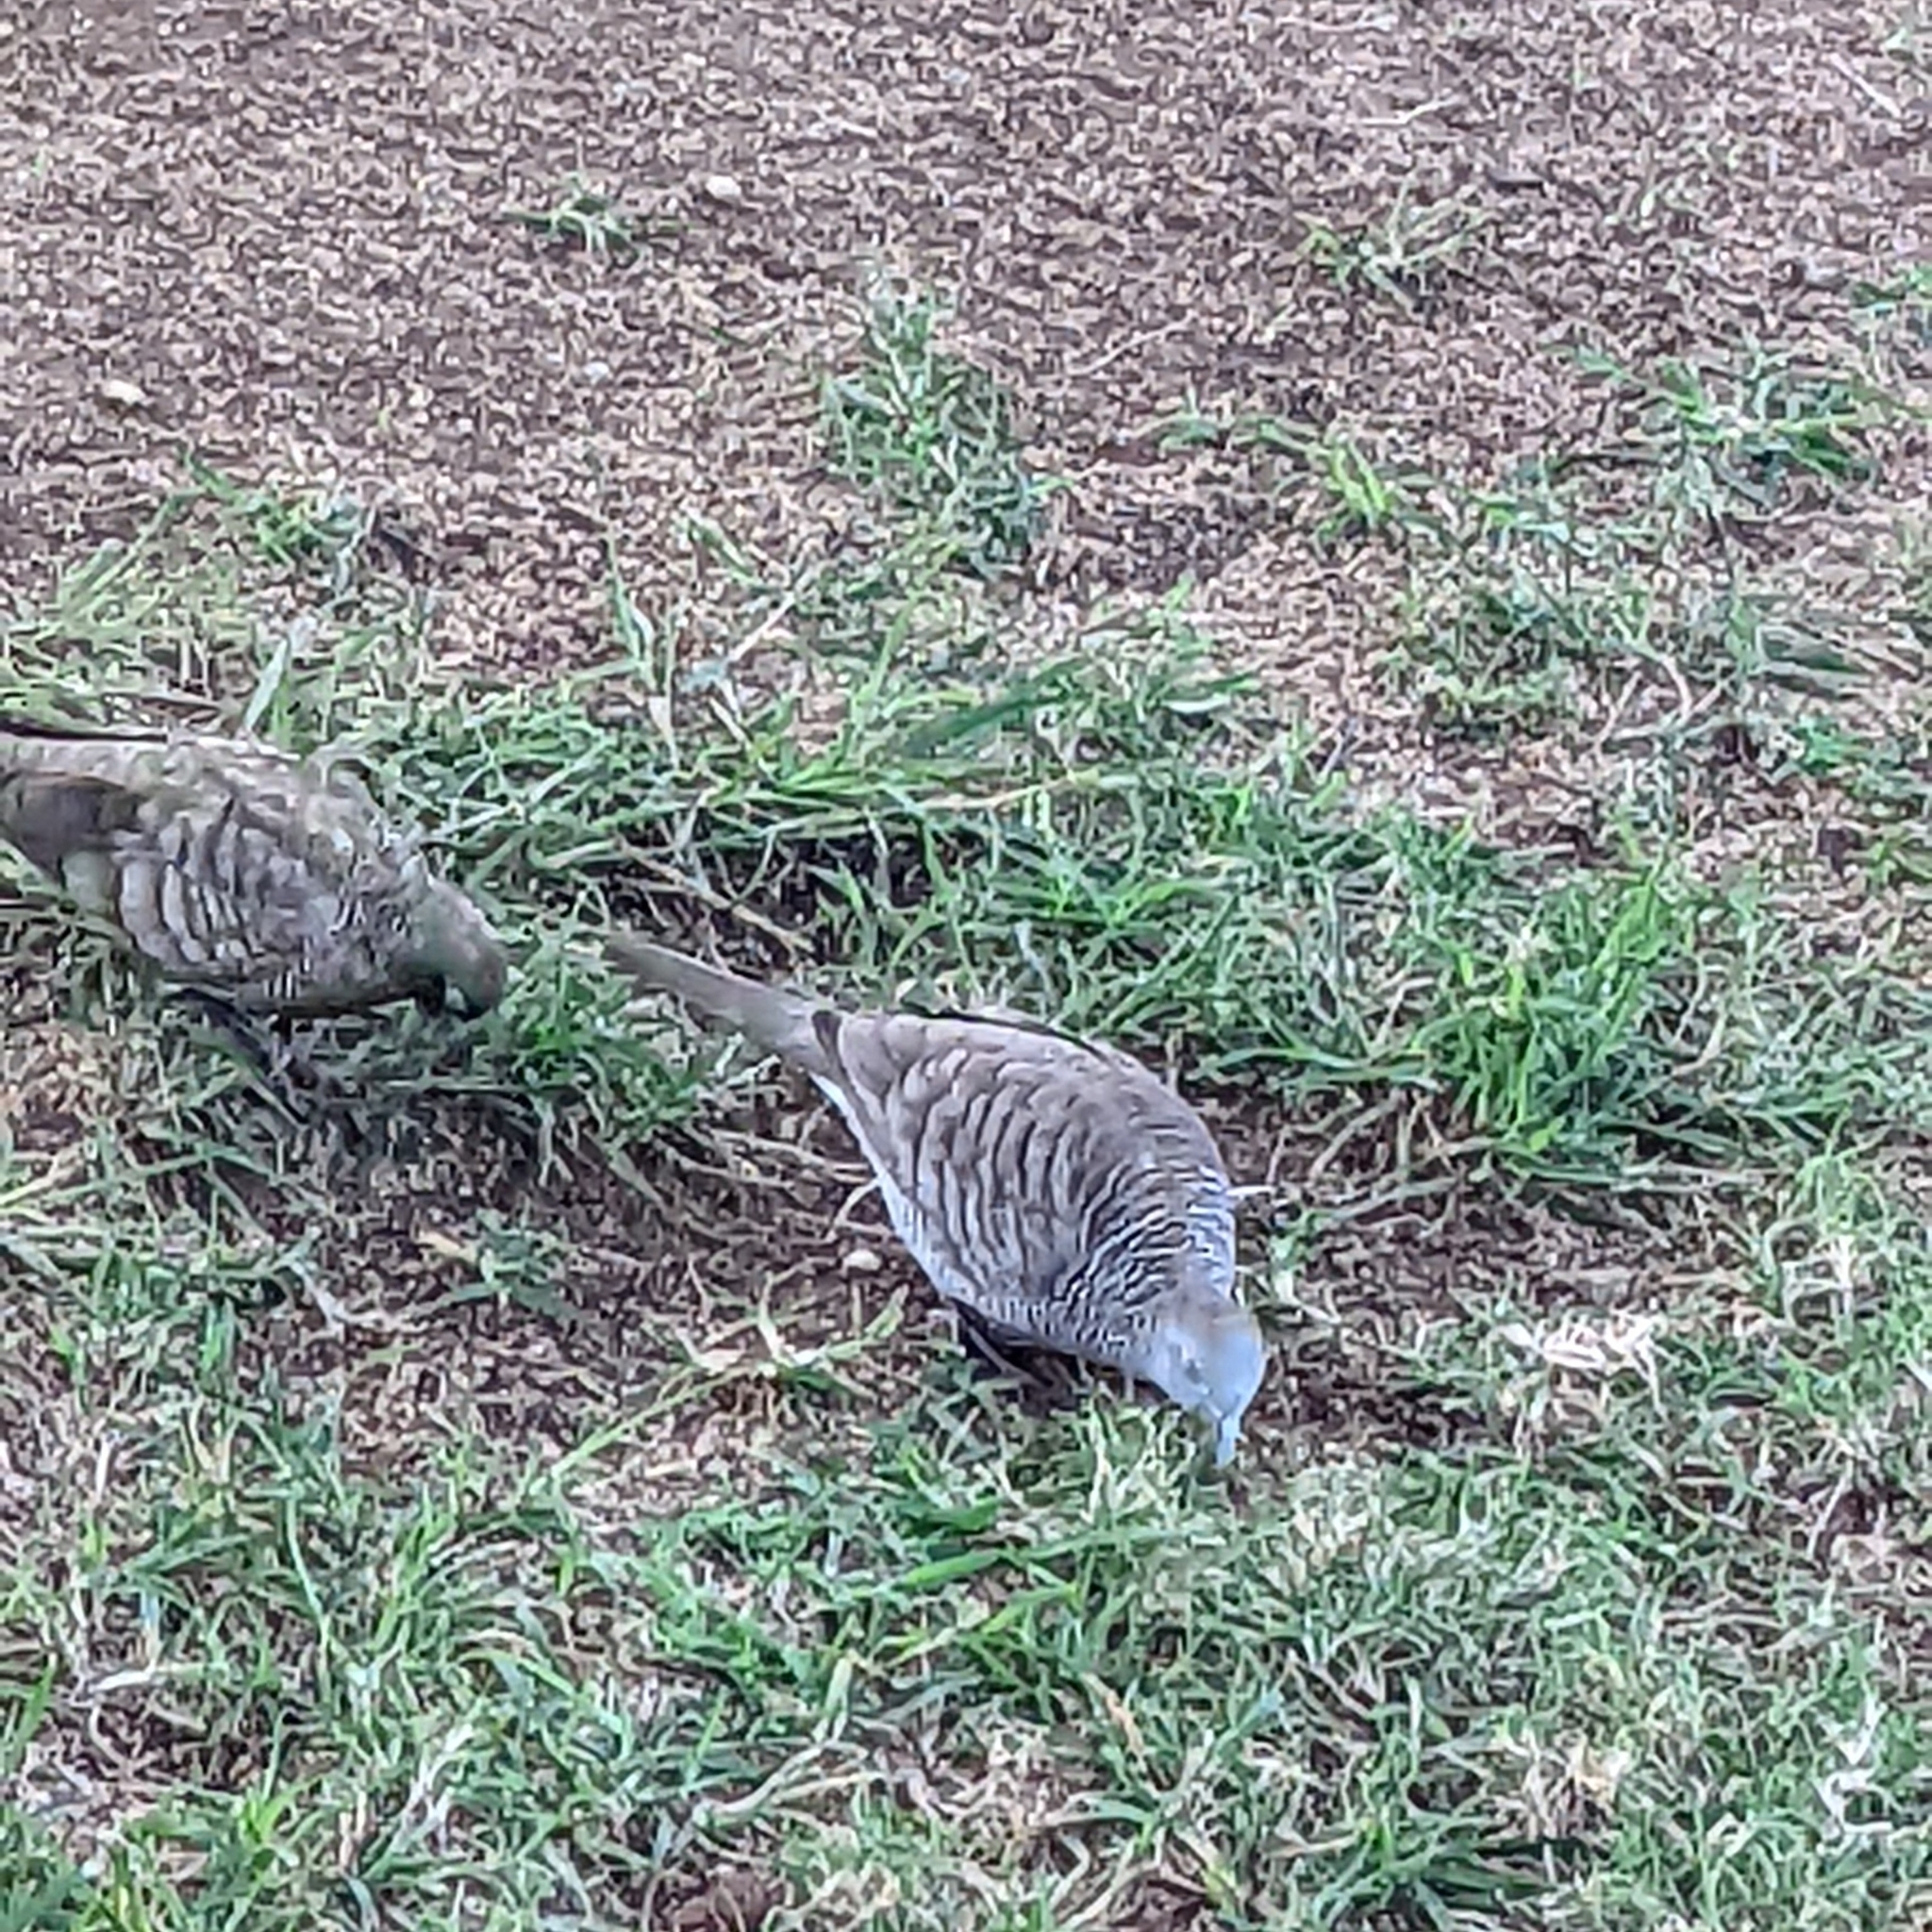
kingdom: Animalia
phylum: Chordata
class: Aves
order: Columbiformes
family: Columbidae
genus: Geopelia
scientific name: Geopelia striata
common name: Zebra dove
